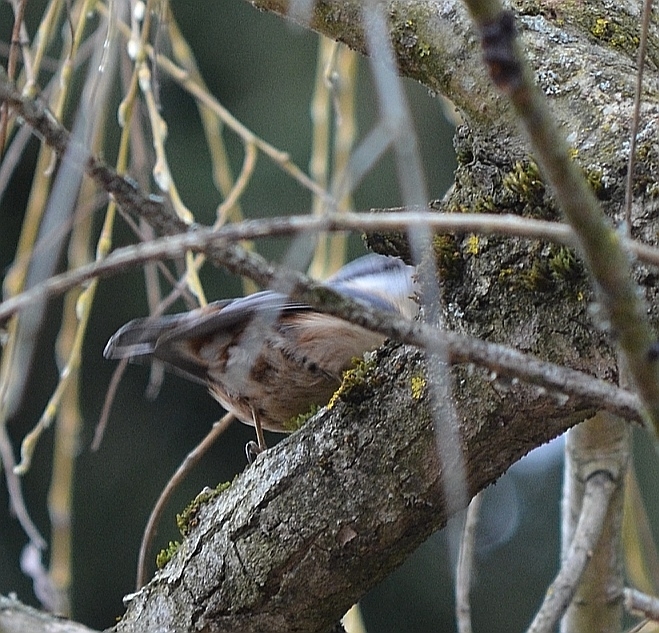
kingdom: Animalia
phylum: Chordata
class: Aves
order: Passeriformes
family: Sittidae
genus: Sitta
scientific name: Sitta europaea
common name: Eurasian nuthatch
